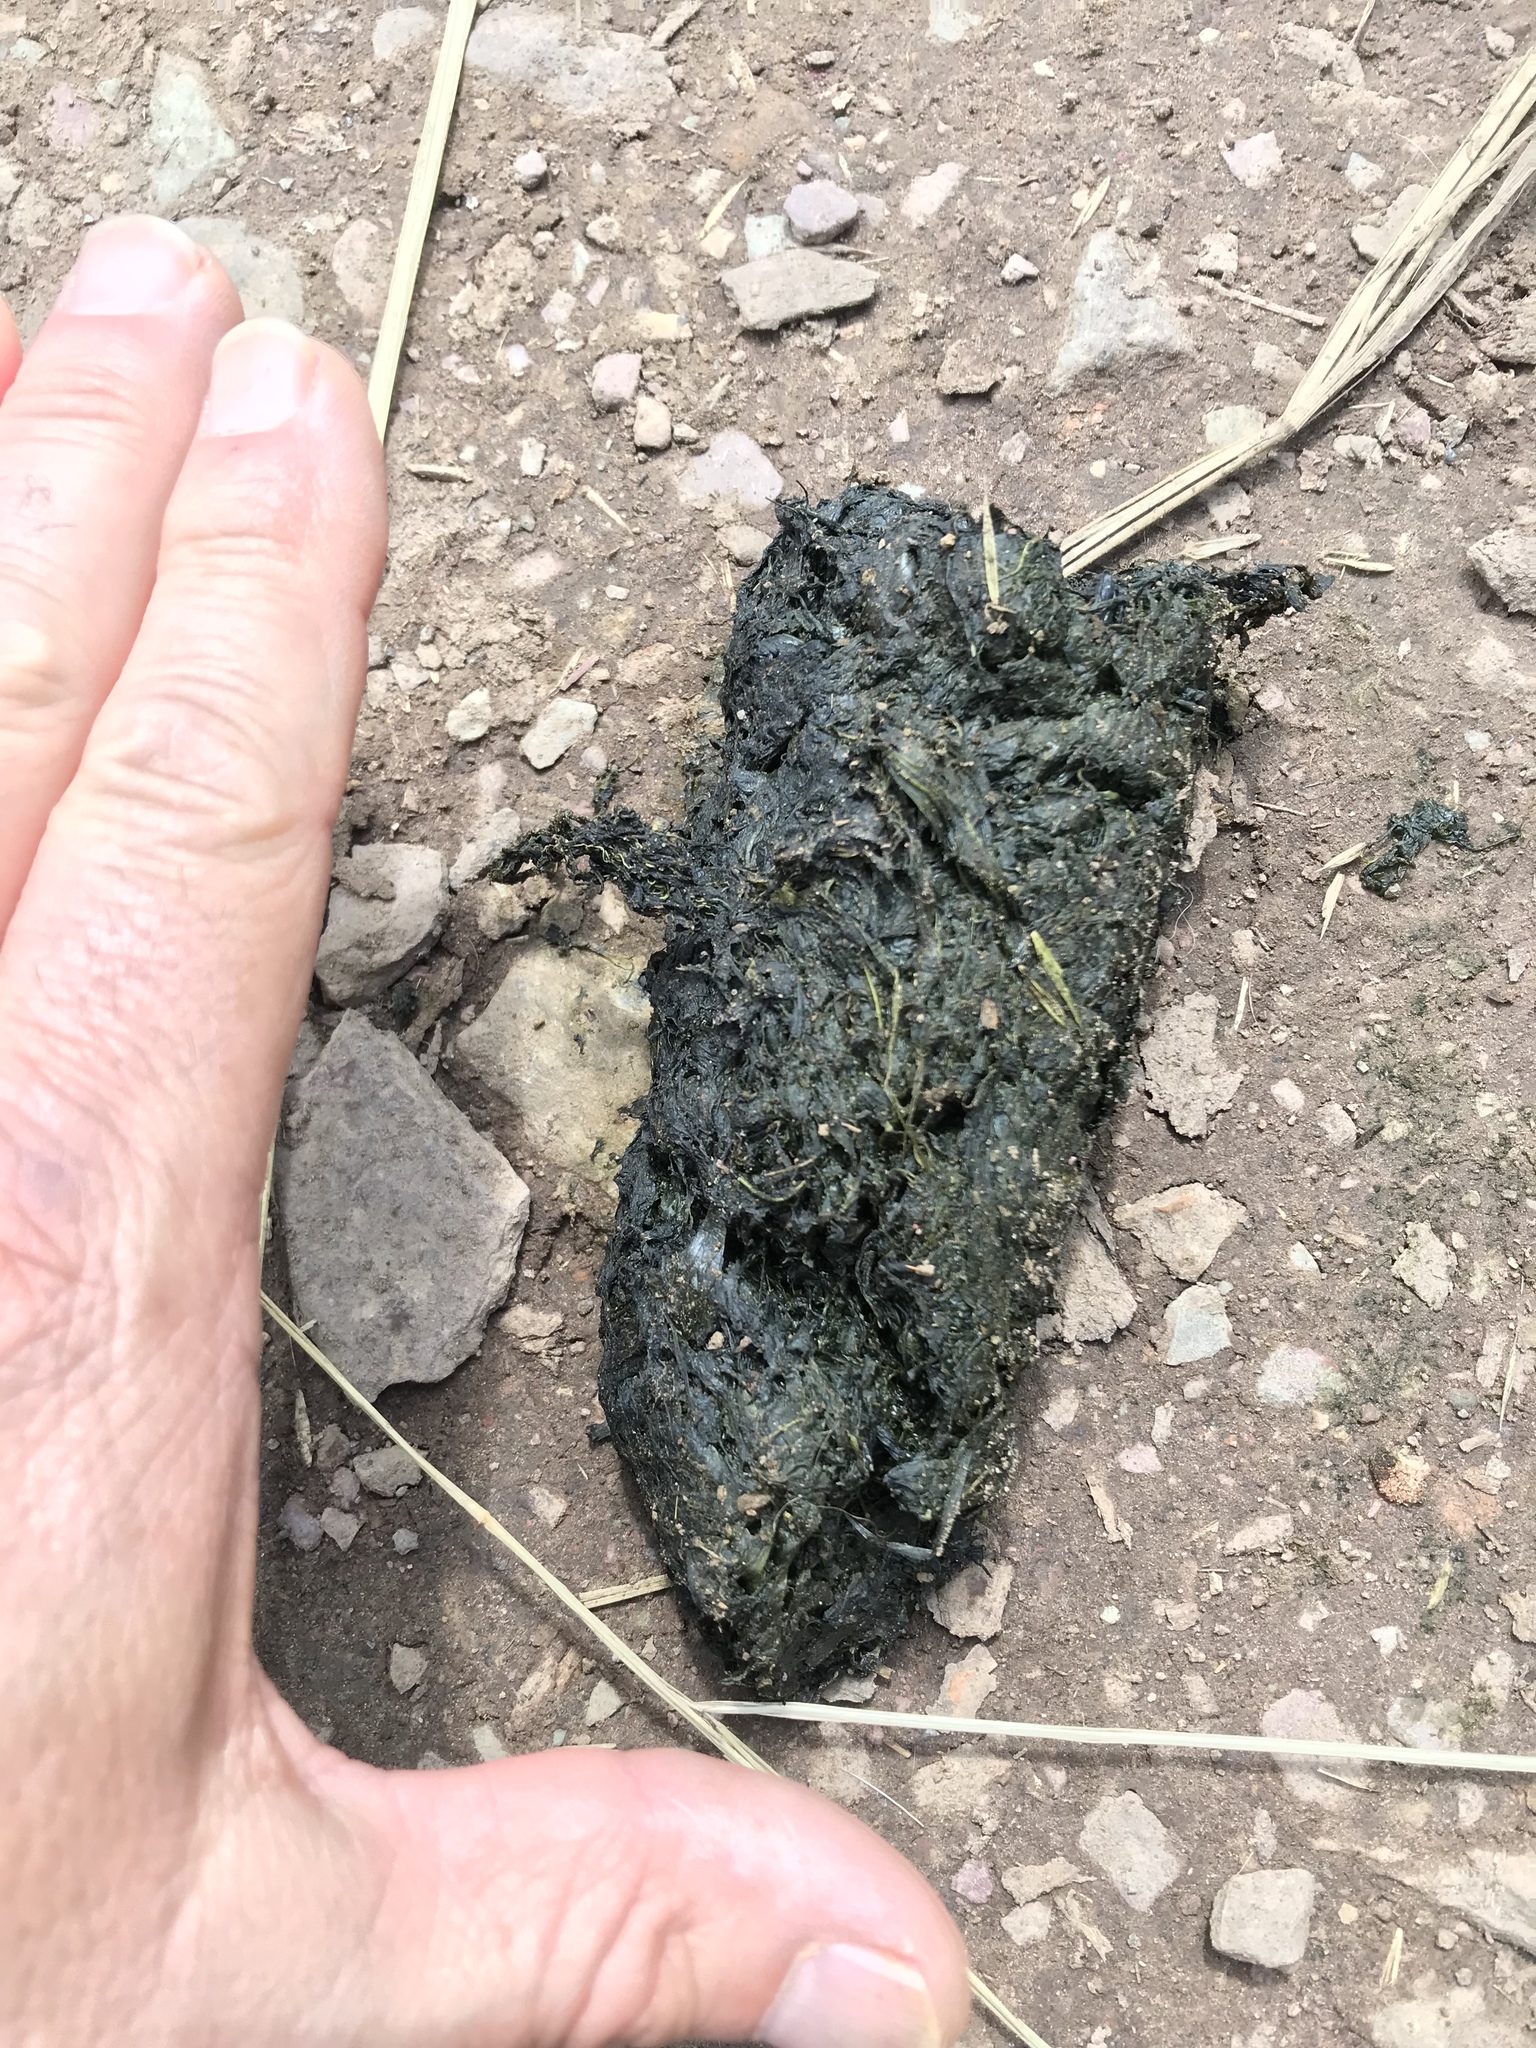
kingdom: Animalia
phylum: Chordata
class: Mammalia
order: Carnivora
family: Ursidae
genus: Ursus
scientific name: Ursus americanus
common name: American black bear
